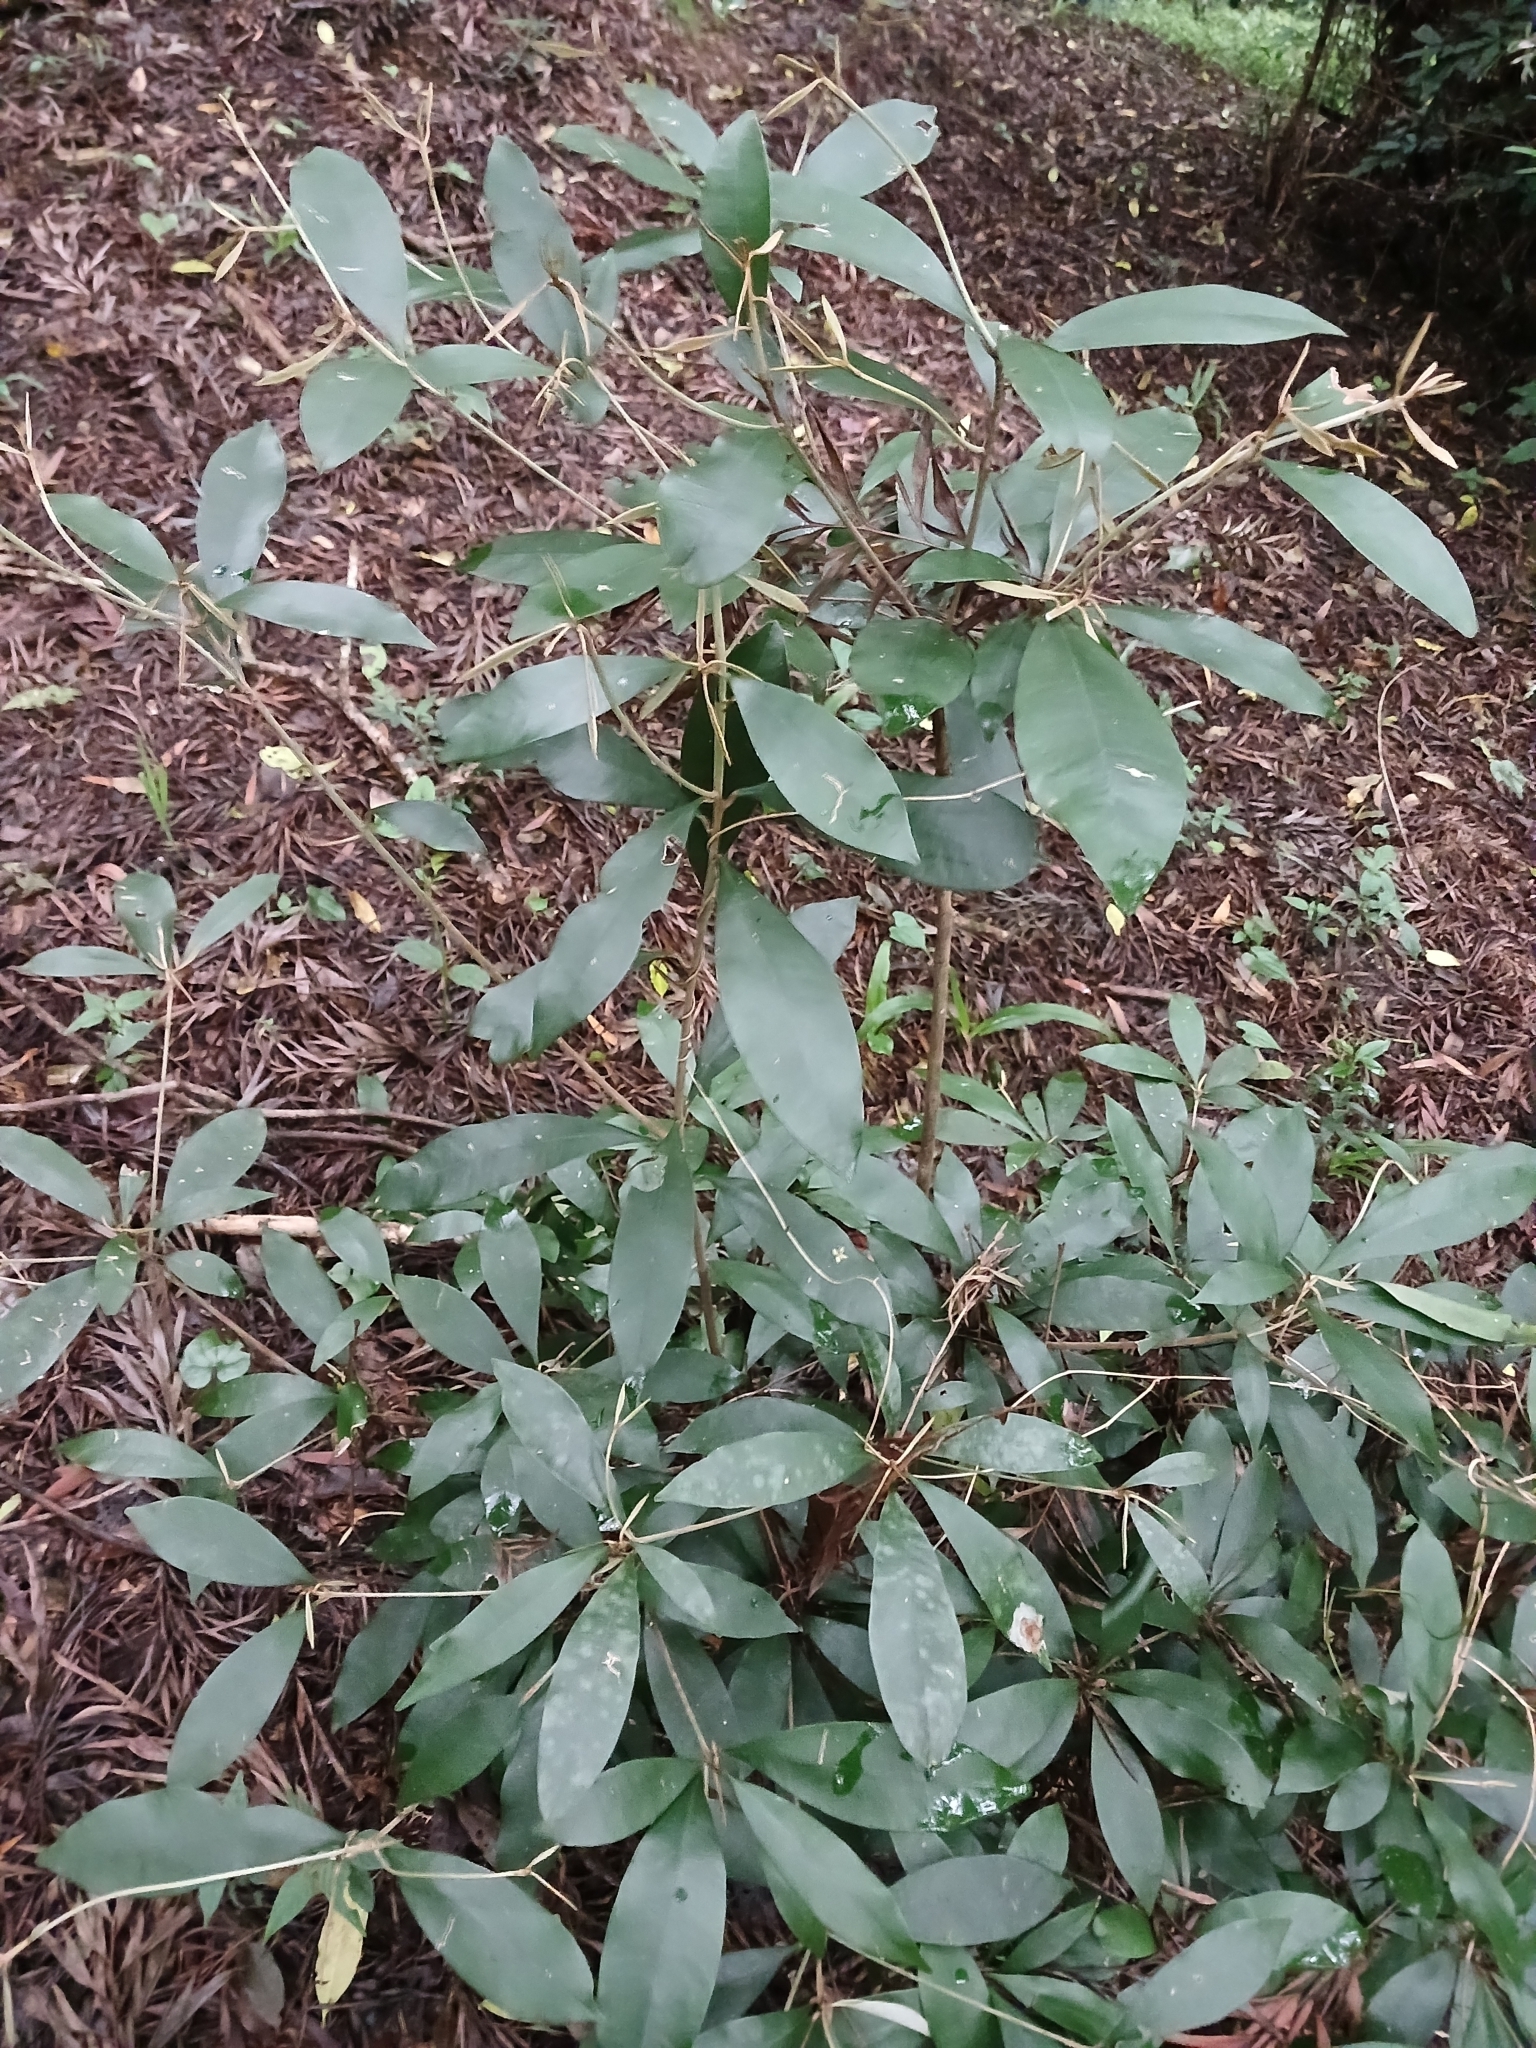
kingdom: Plantae
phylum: Tracheophyta
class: Magnoliopsida
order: Ericales
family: Sapotaceae
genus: Englerophytum
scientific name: Englerophytum natalense
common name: Silver-leaved milkplum
